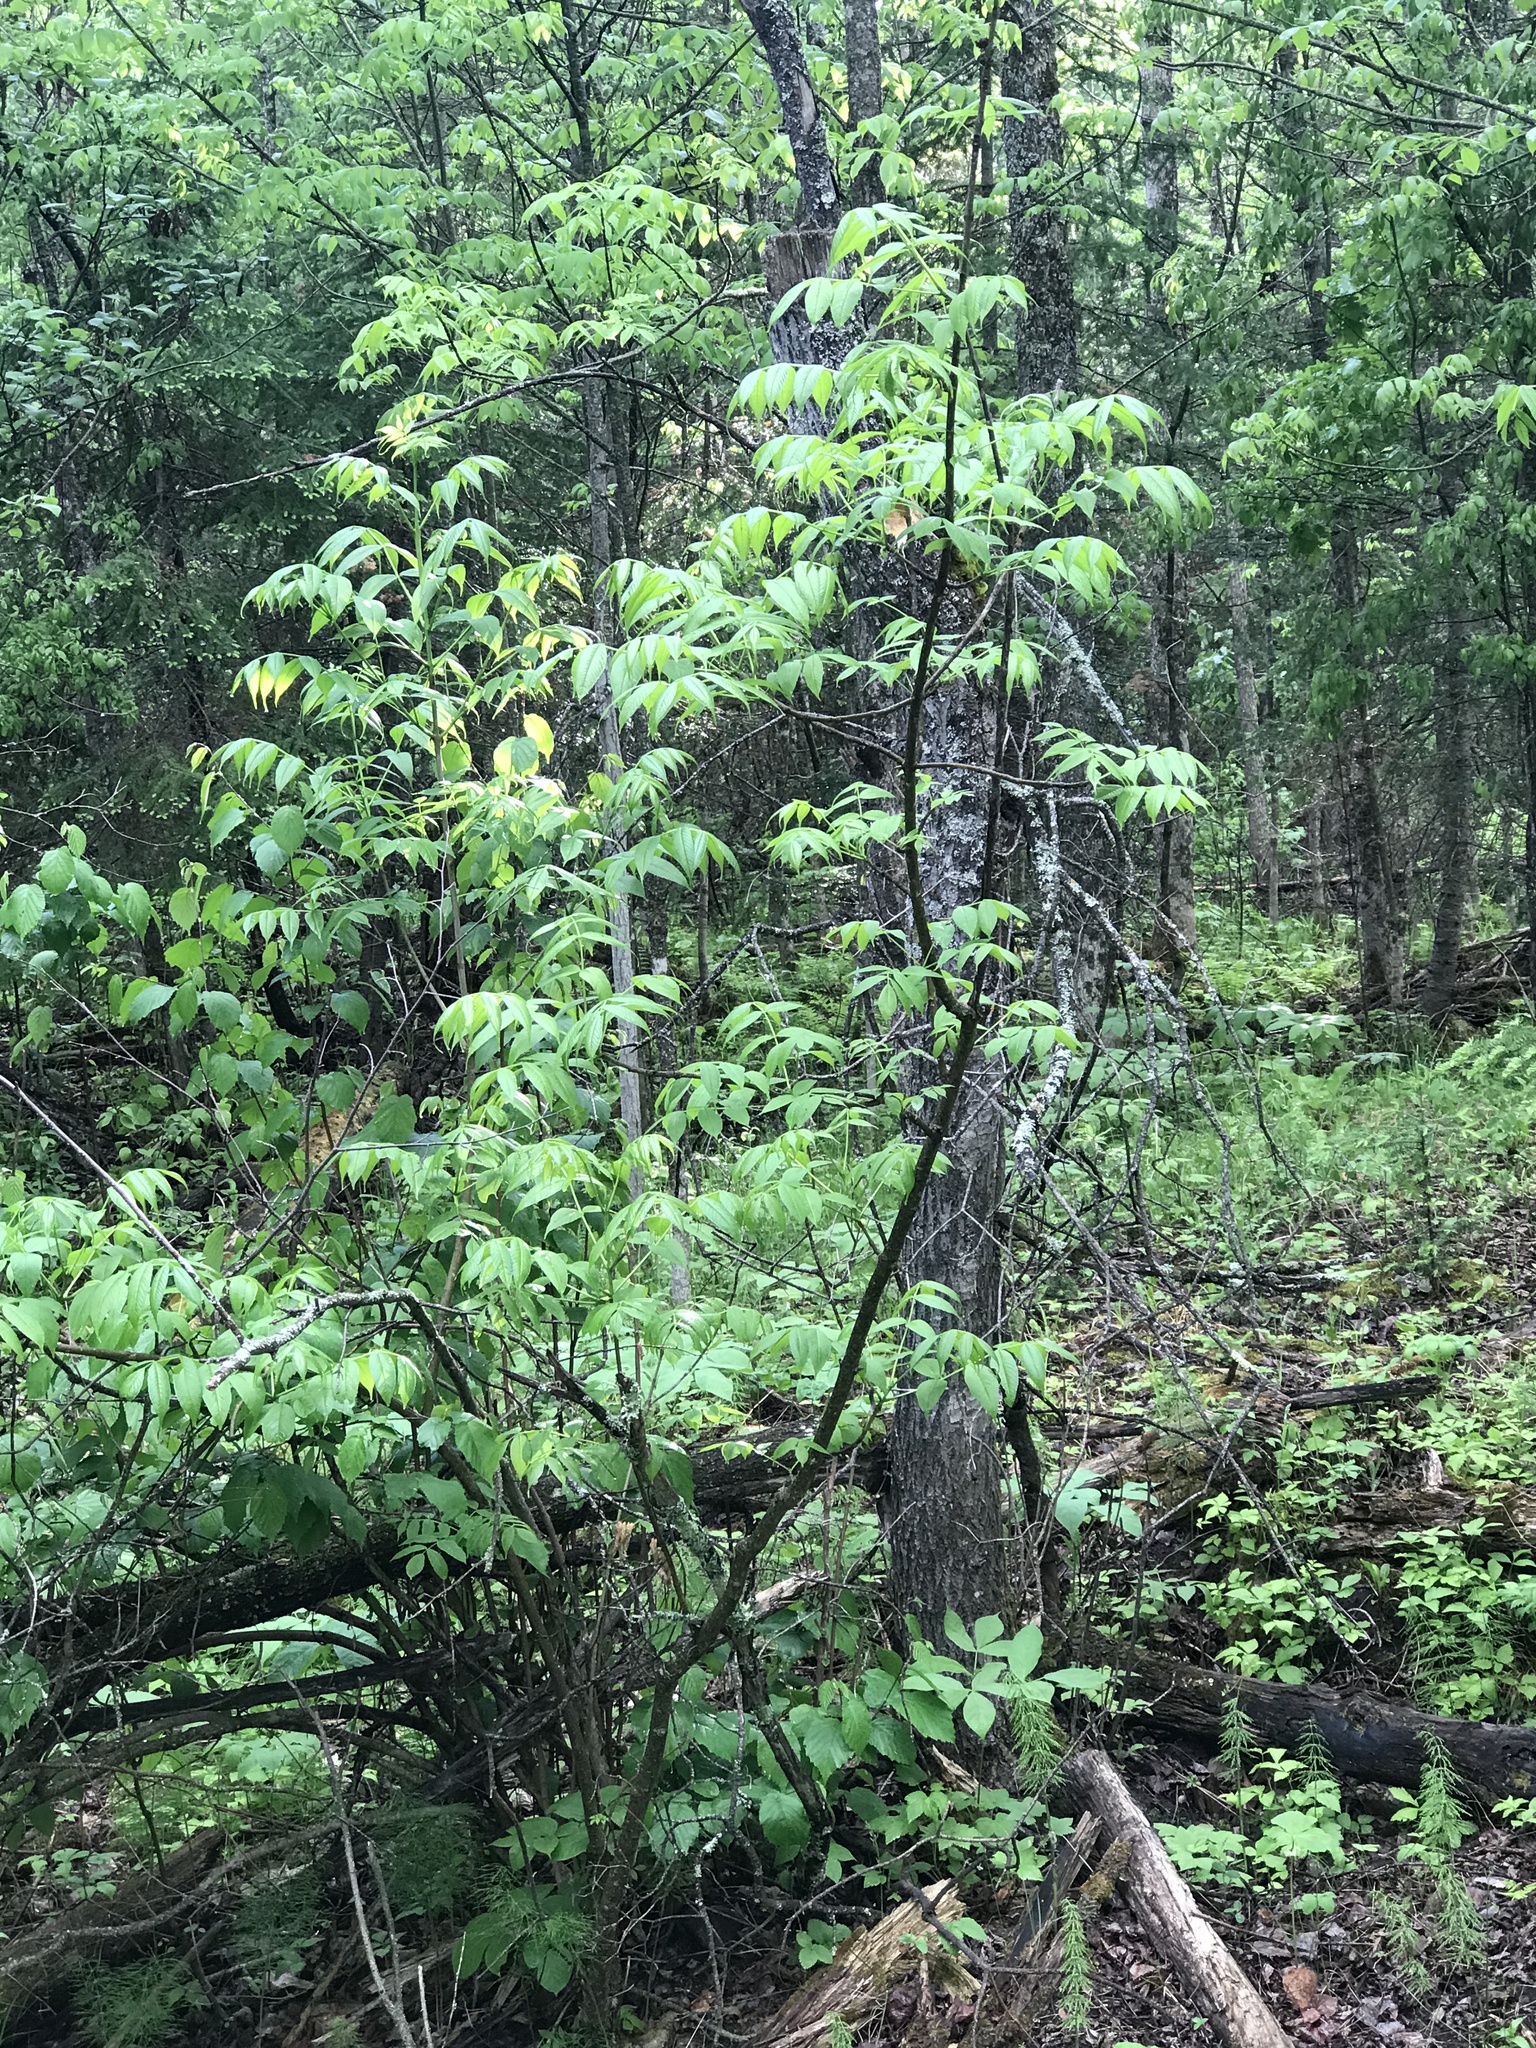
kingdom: Plantae
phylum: Tracheophyta
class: Magnoliopsida
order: Lamiales
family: Oleaceae
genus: Fraxinus
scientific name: Fraxinus nigra
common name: Black ash
